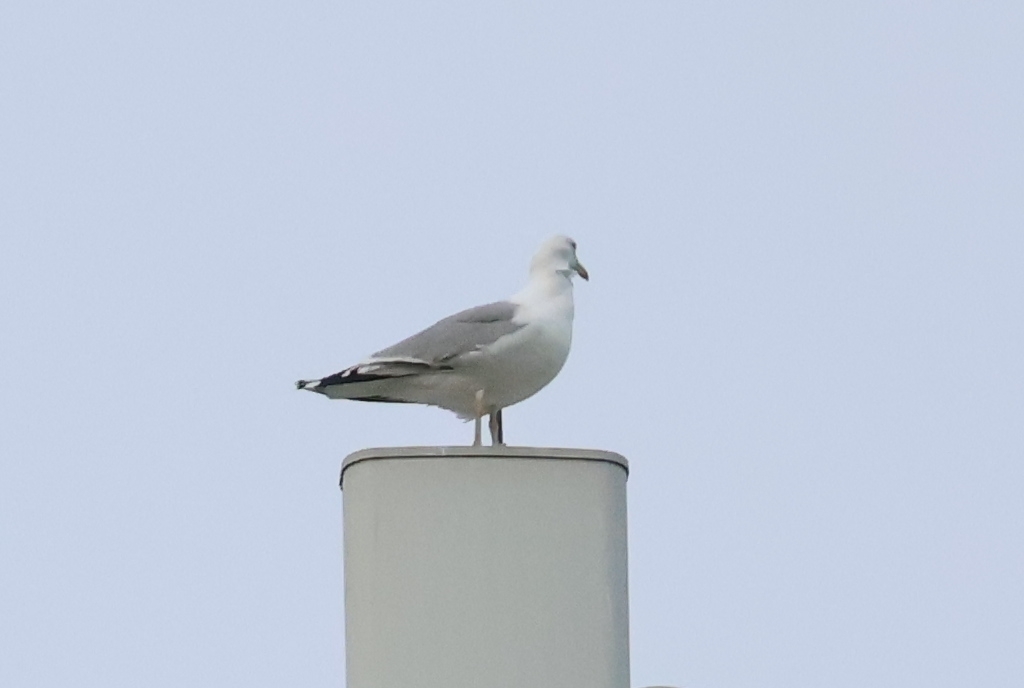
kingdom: Animalia
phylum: Chordata
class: Aves
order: Charadriiformes
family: Laridae
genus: Larus
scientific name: Larus argentatus
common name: Herring gull
